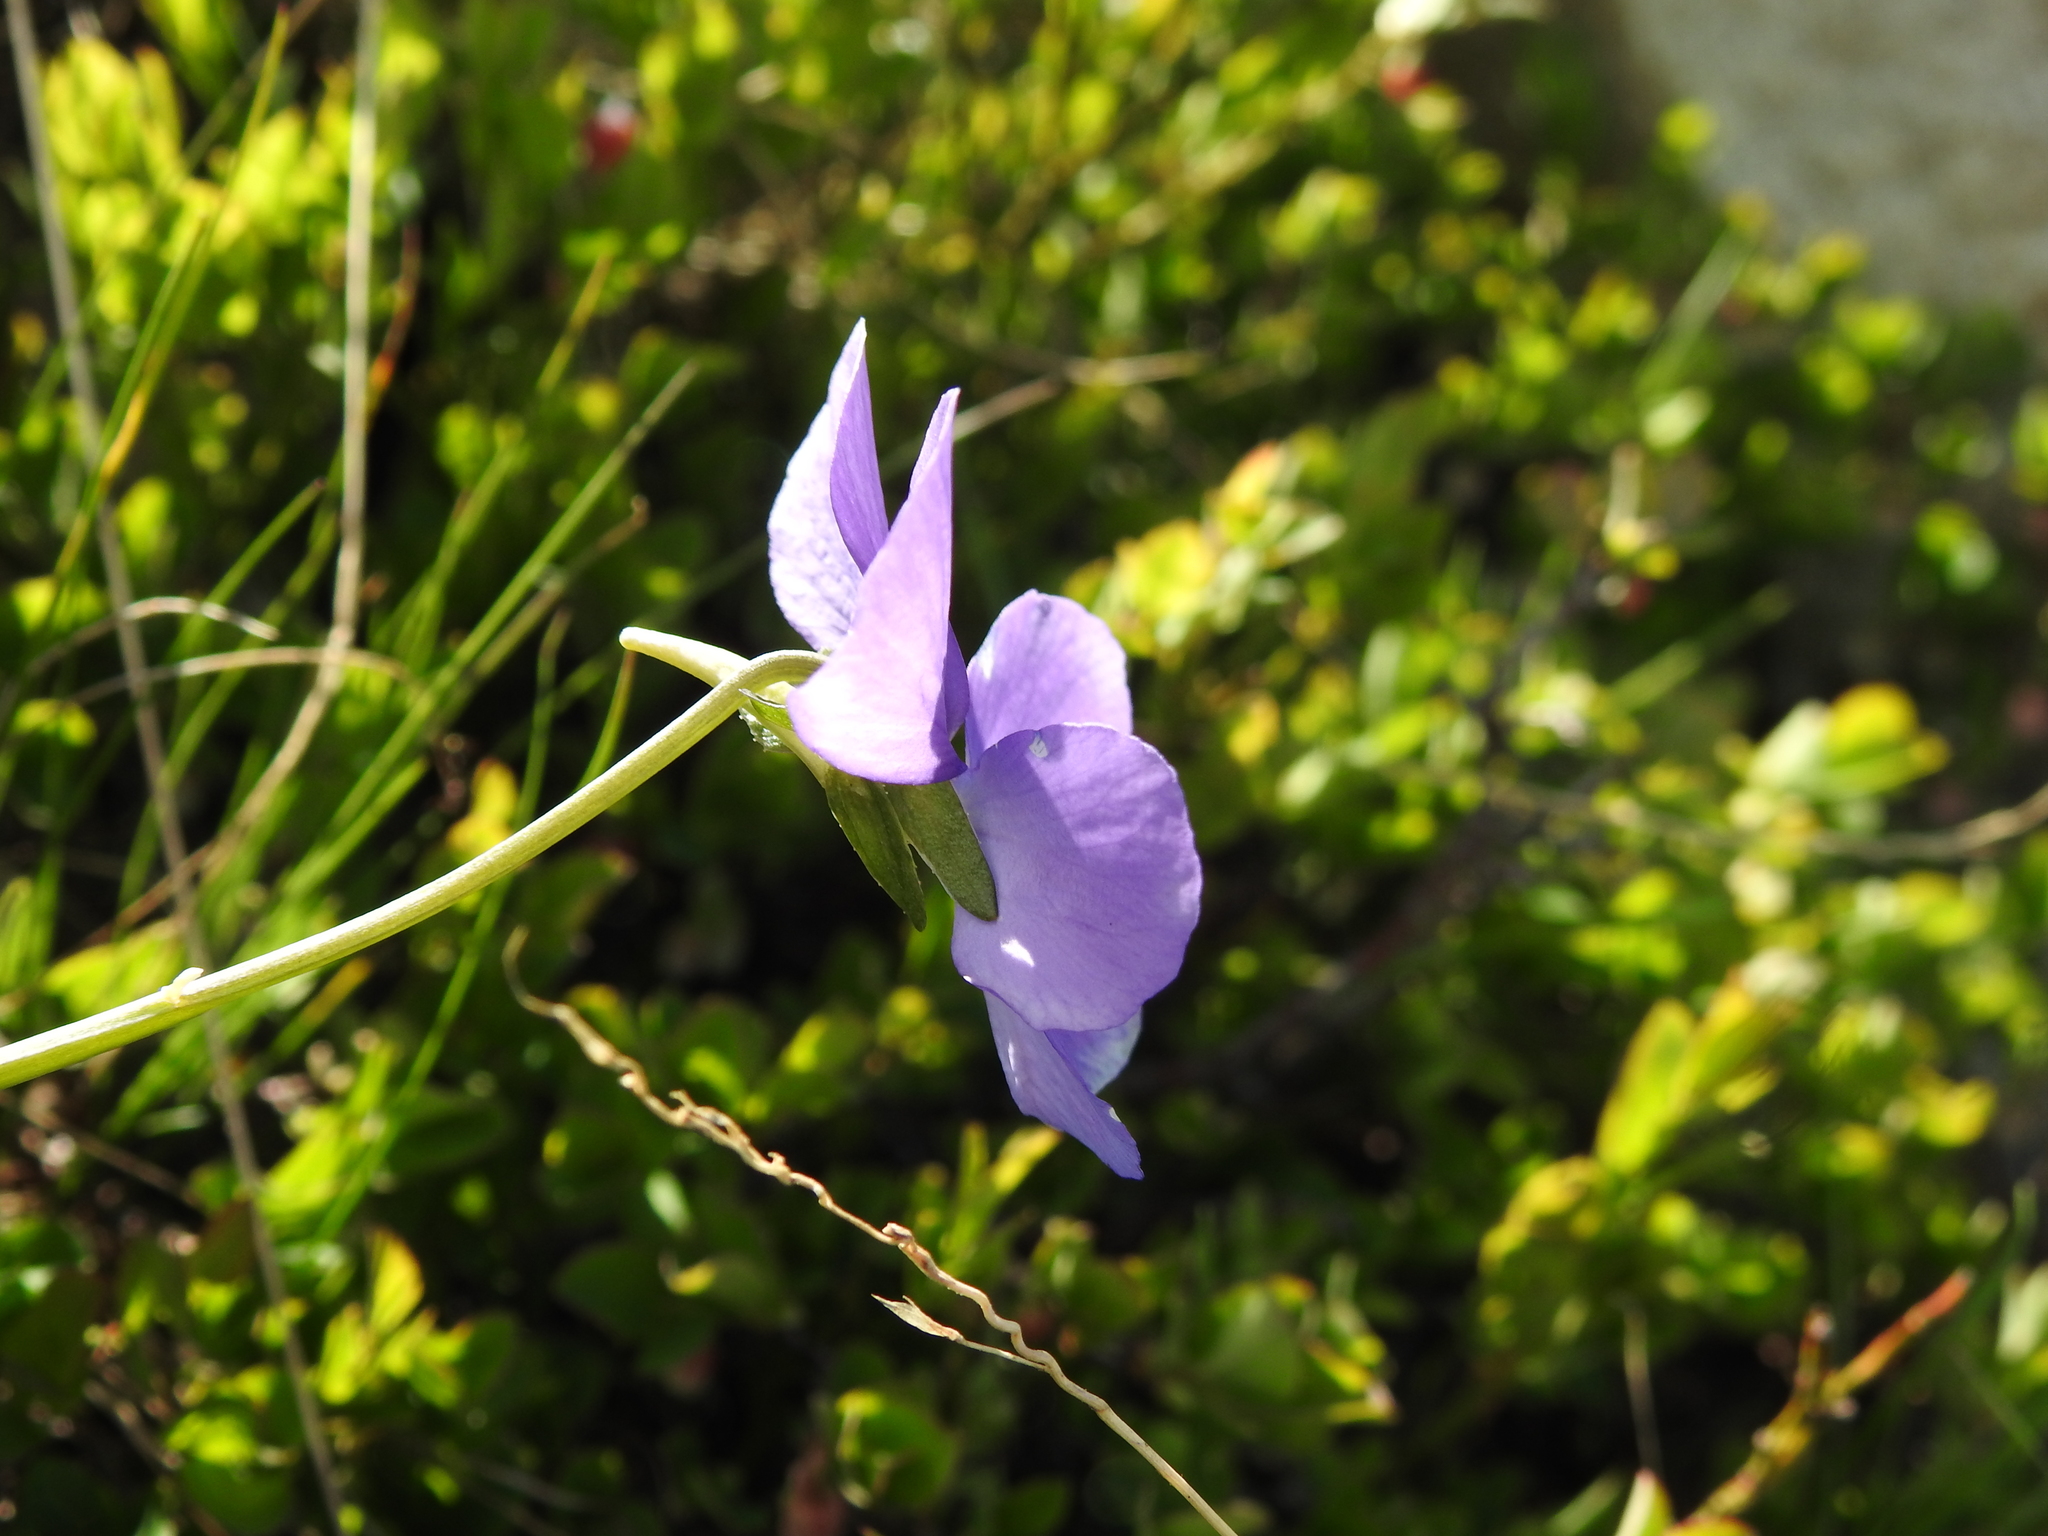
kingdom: Plantae
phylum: Tracheophyta
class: Magnoliopsida
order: Malpighiales
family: Violaceae
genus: Viola
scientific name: Viola calcarata
